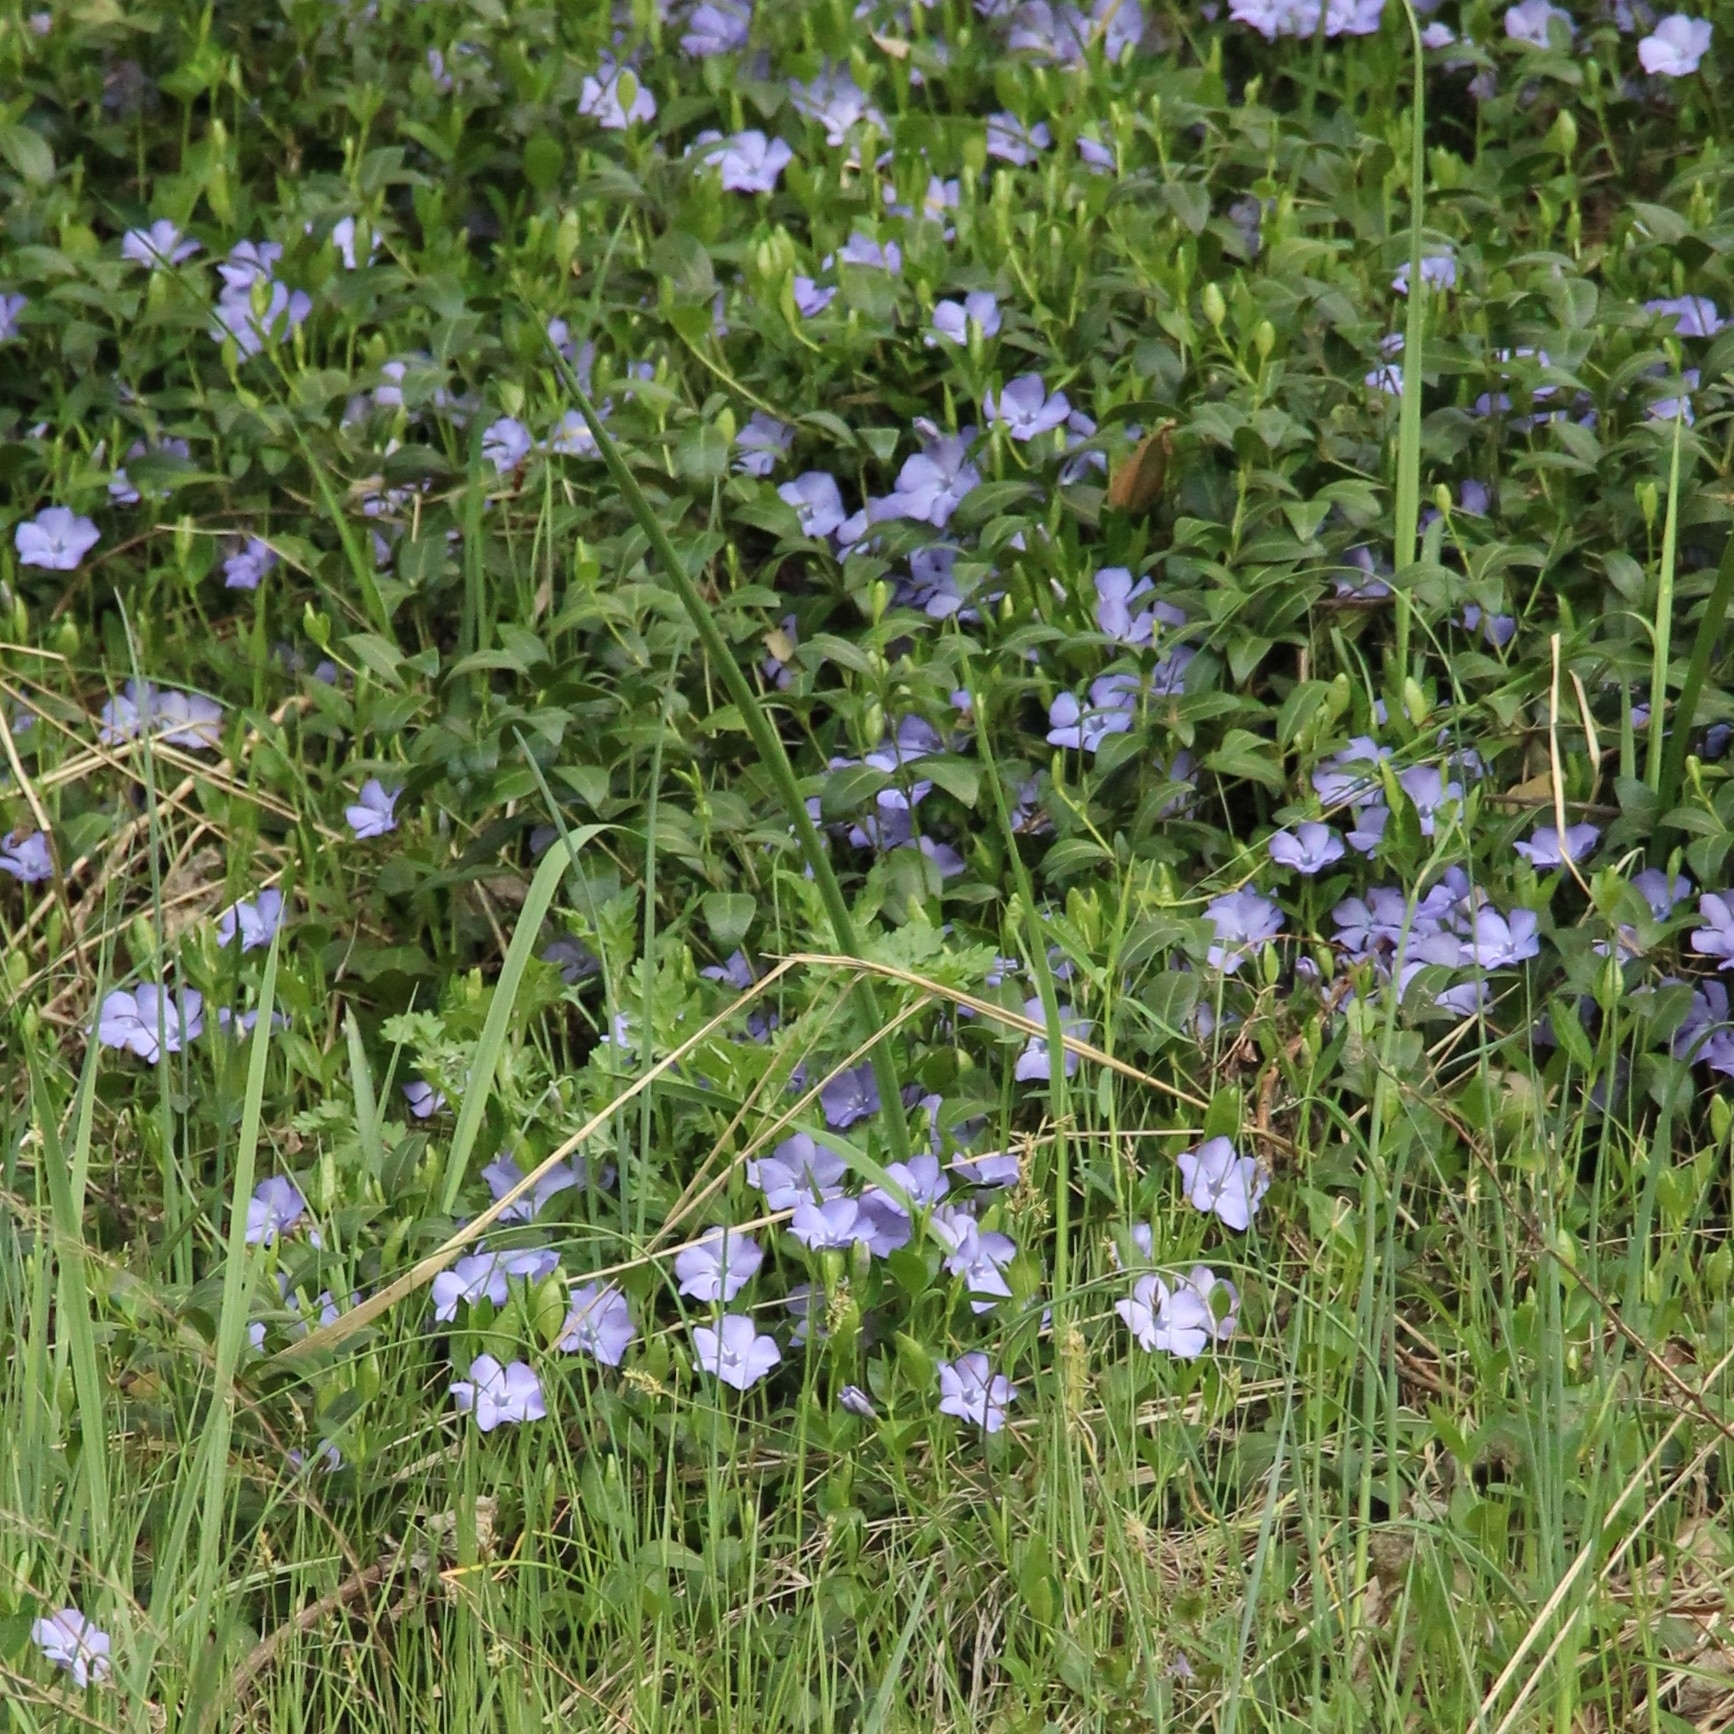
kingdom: Plantae
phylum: Tracheophyta
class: Magnoliopsida
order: Gentianales
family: Apocynaceae
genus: Vinca
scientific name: Vinca minor
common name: Lesser periwinkle
